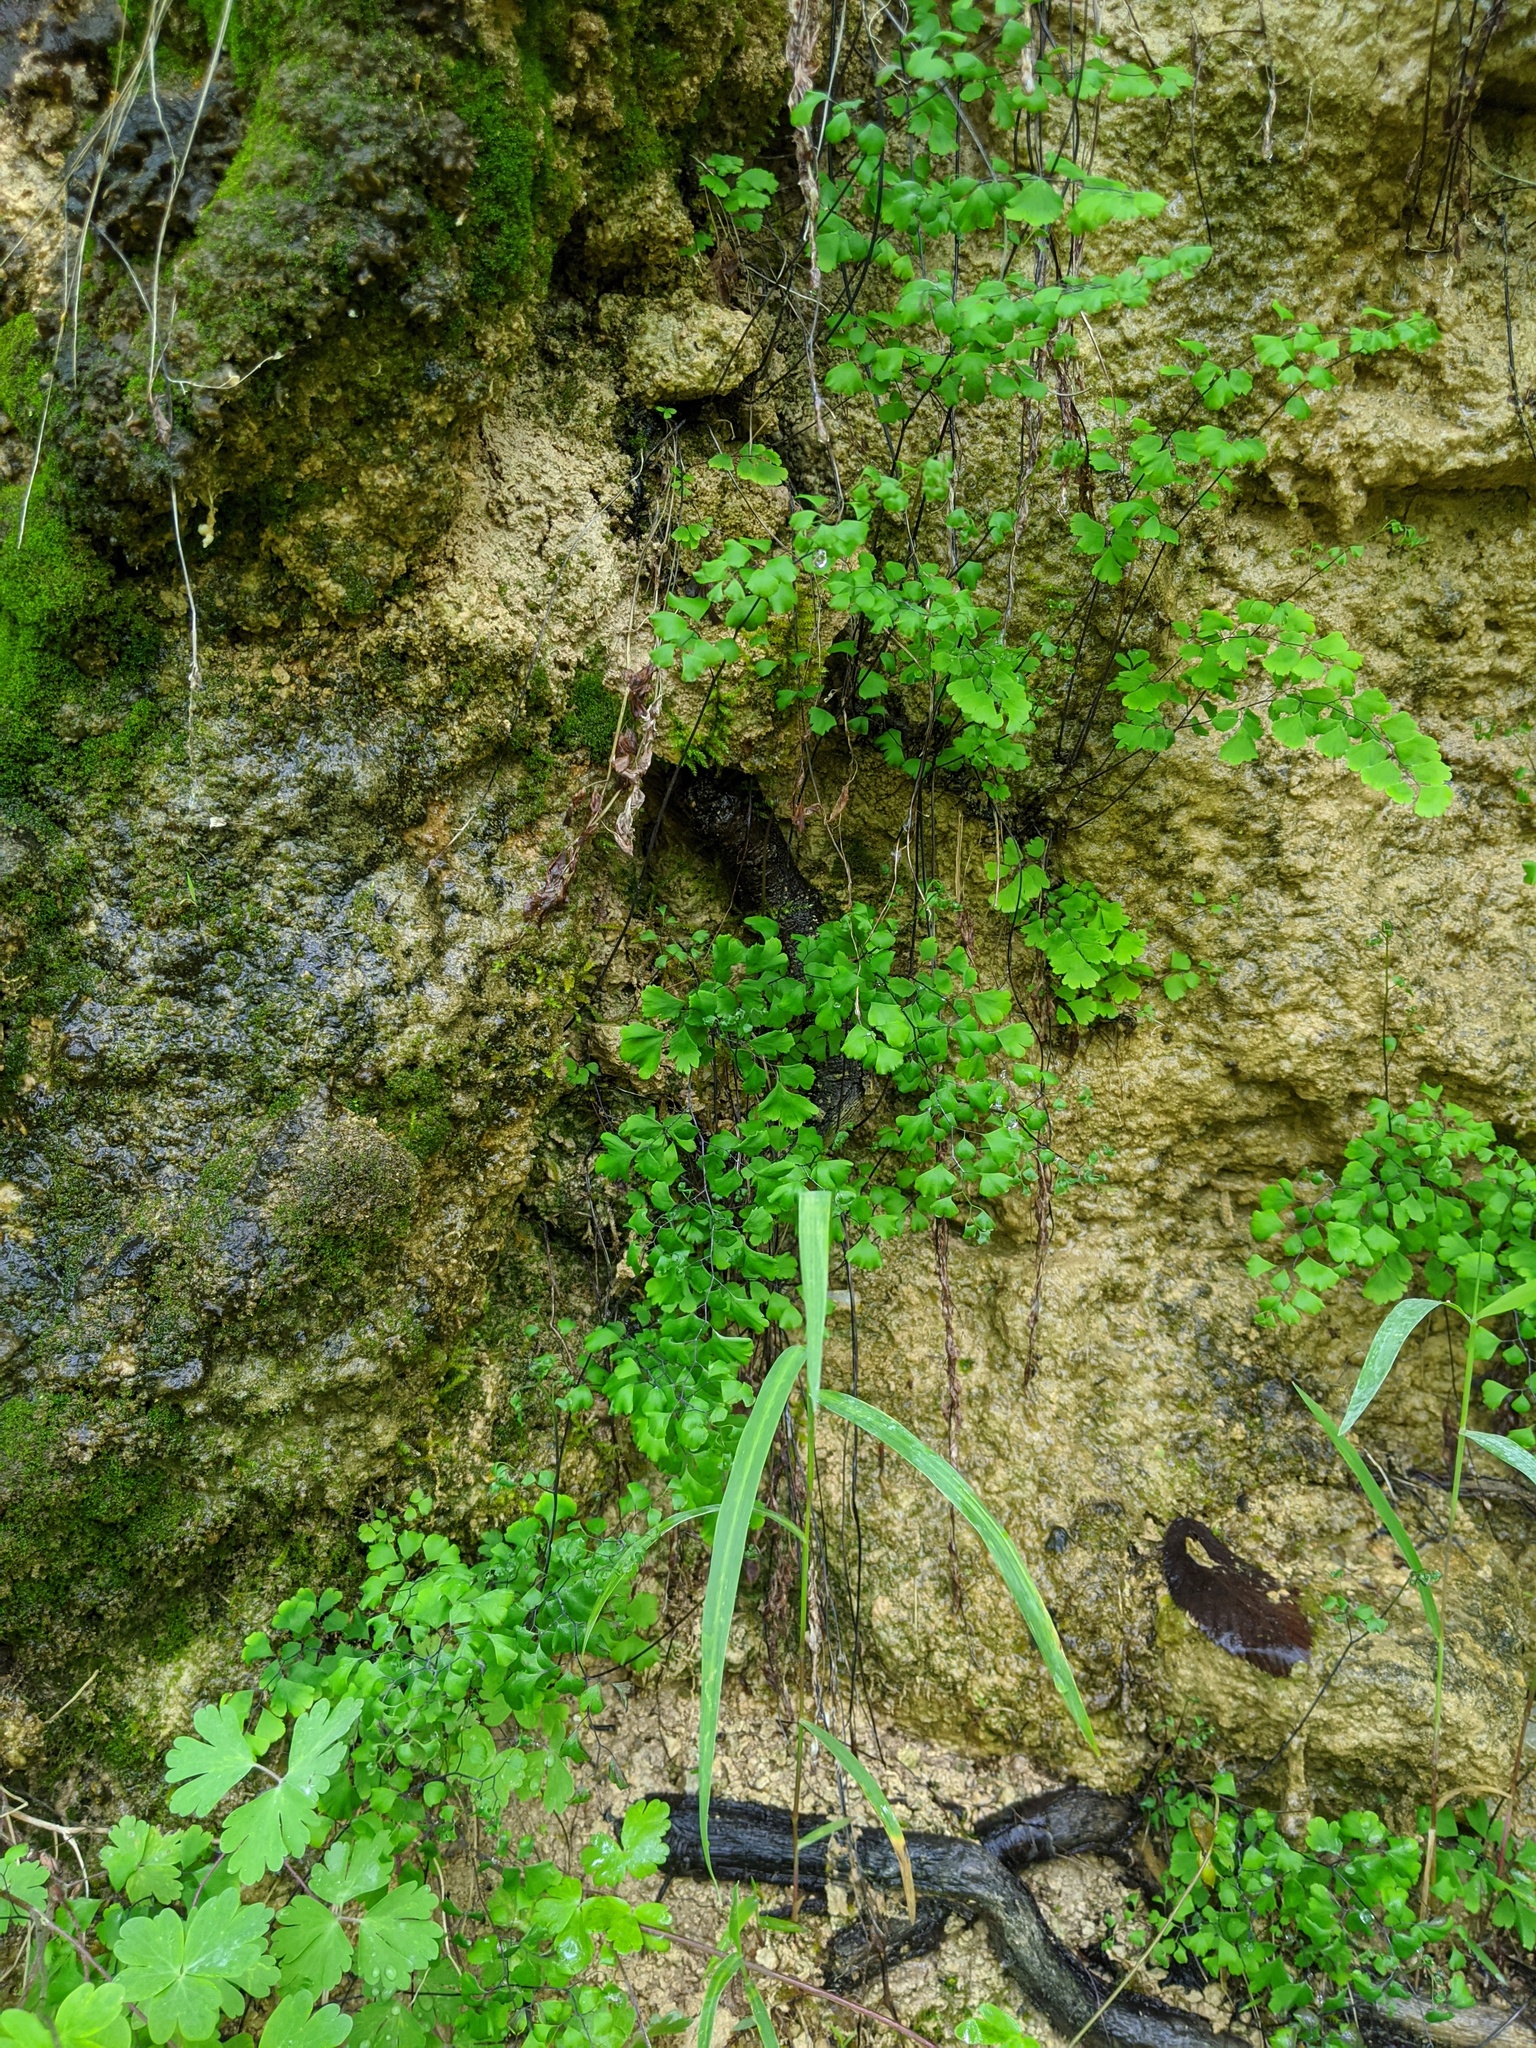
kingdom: Plantae
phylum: Tracheophyta
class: Polypodiopsida
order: Polypodiales
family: Pteridaceae
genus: Adiantum
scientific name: Adiantum capillus-veneris
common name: Maidenhair fern
